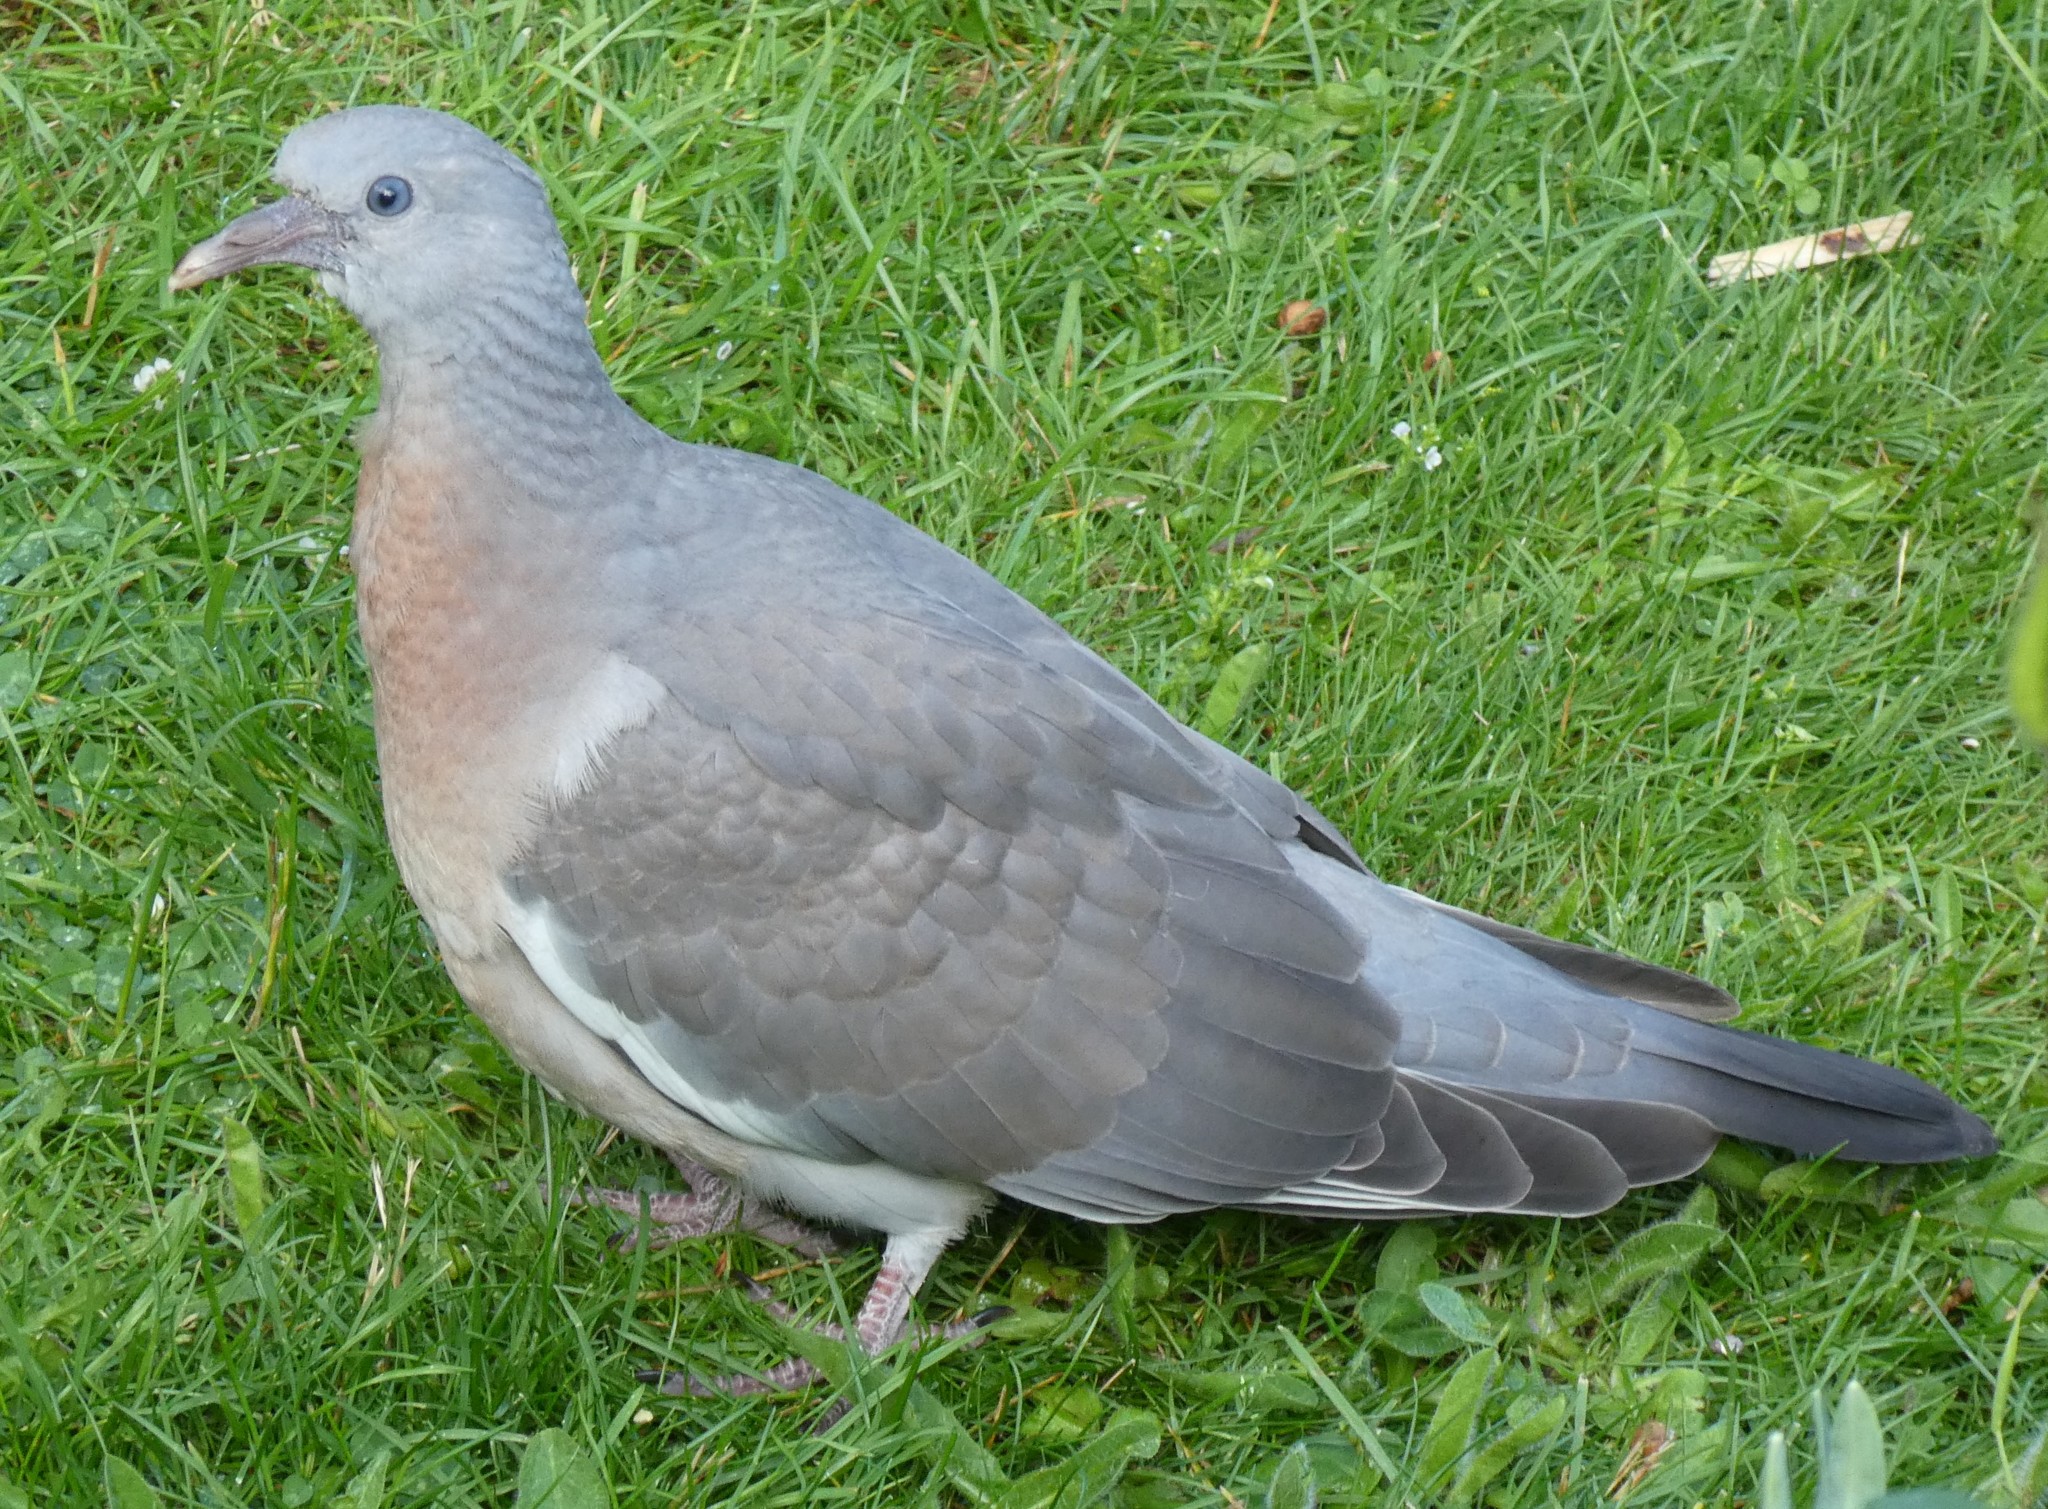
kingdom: Animalia
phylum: Chordata
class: Aves
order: Columbiformes
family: Columbidae
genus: Columba
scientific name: Columba palumbus
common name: Common wood pigeon
